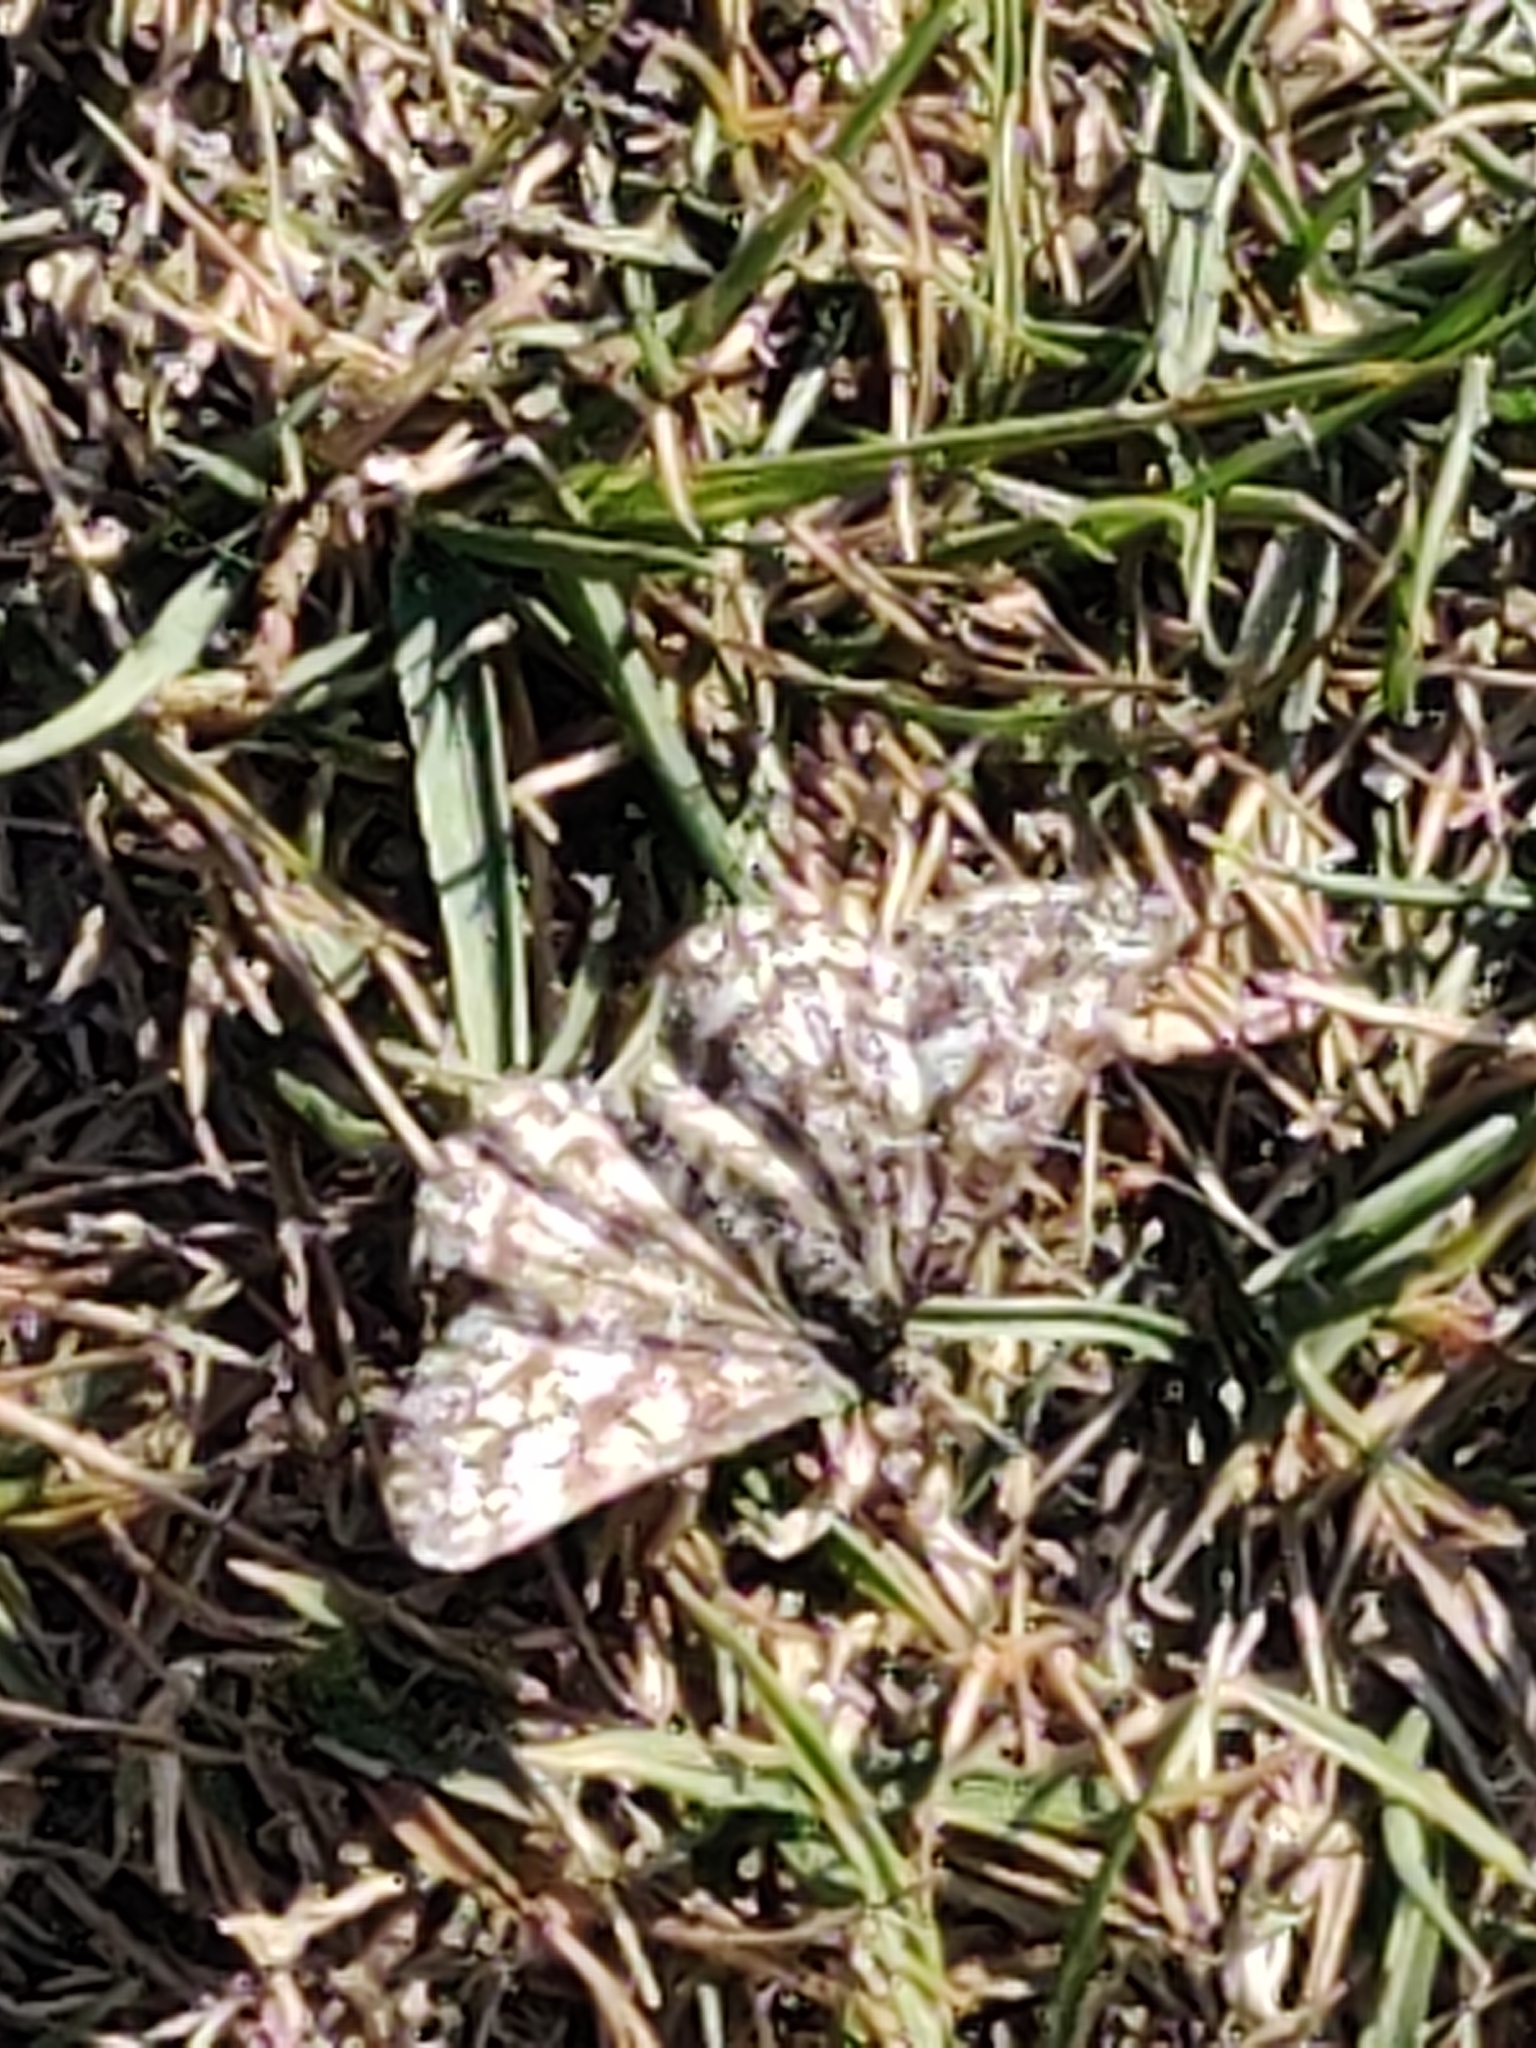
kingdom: Animalia
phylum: Arthropoda
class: Insecta
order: Lepidoptera
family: Geometridae
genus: Ematurga
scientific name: Ematurga atomaria
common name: Common heath
